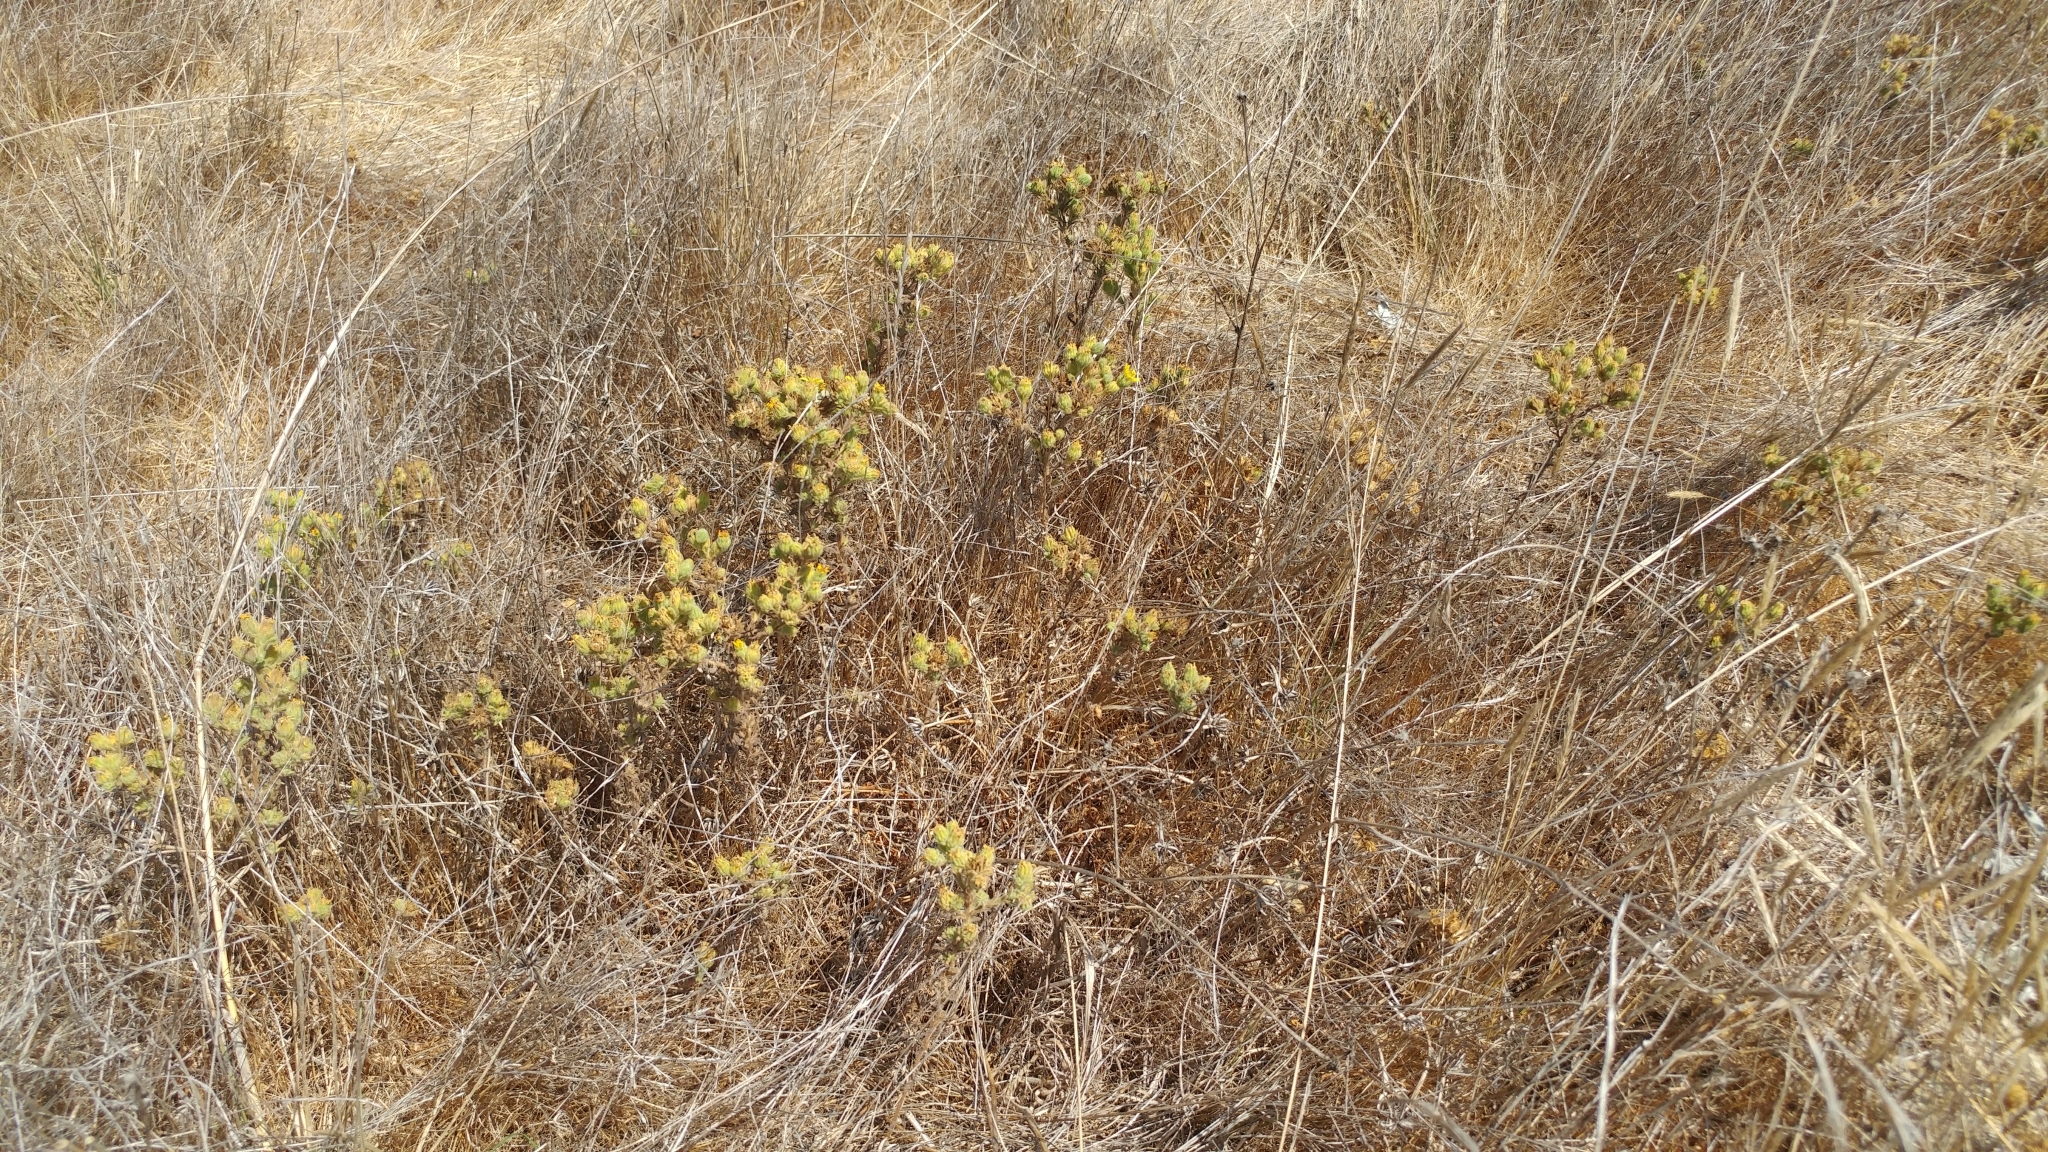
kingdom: Plantae
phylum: Tracheophyta
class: Magnoliopsida
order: Asterales
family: Asteraceae
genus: Deinandra
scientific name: Deinandra increscens
